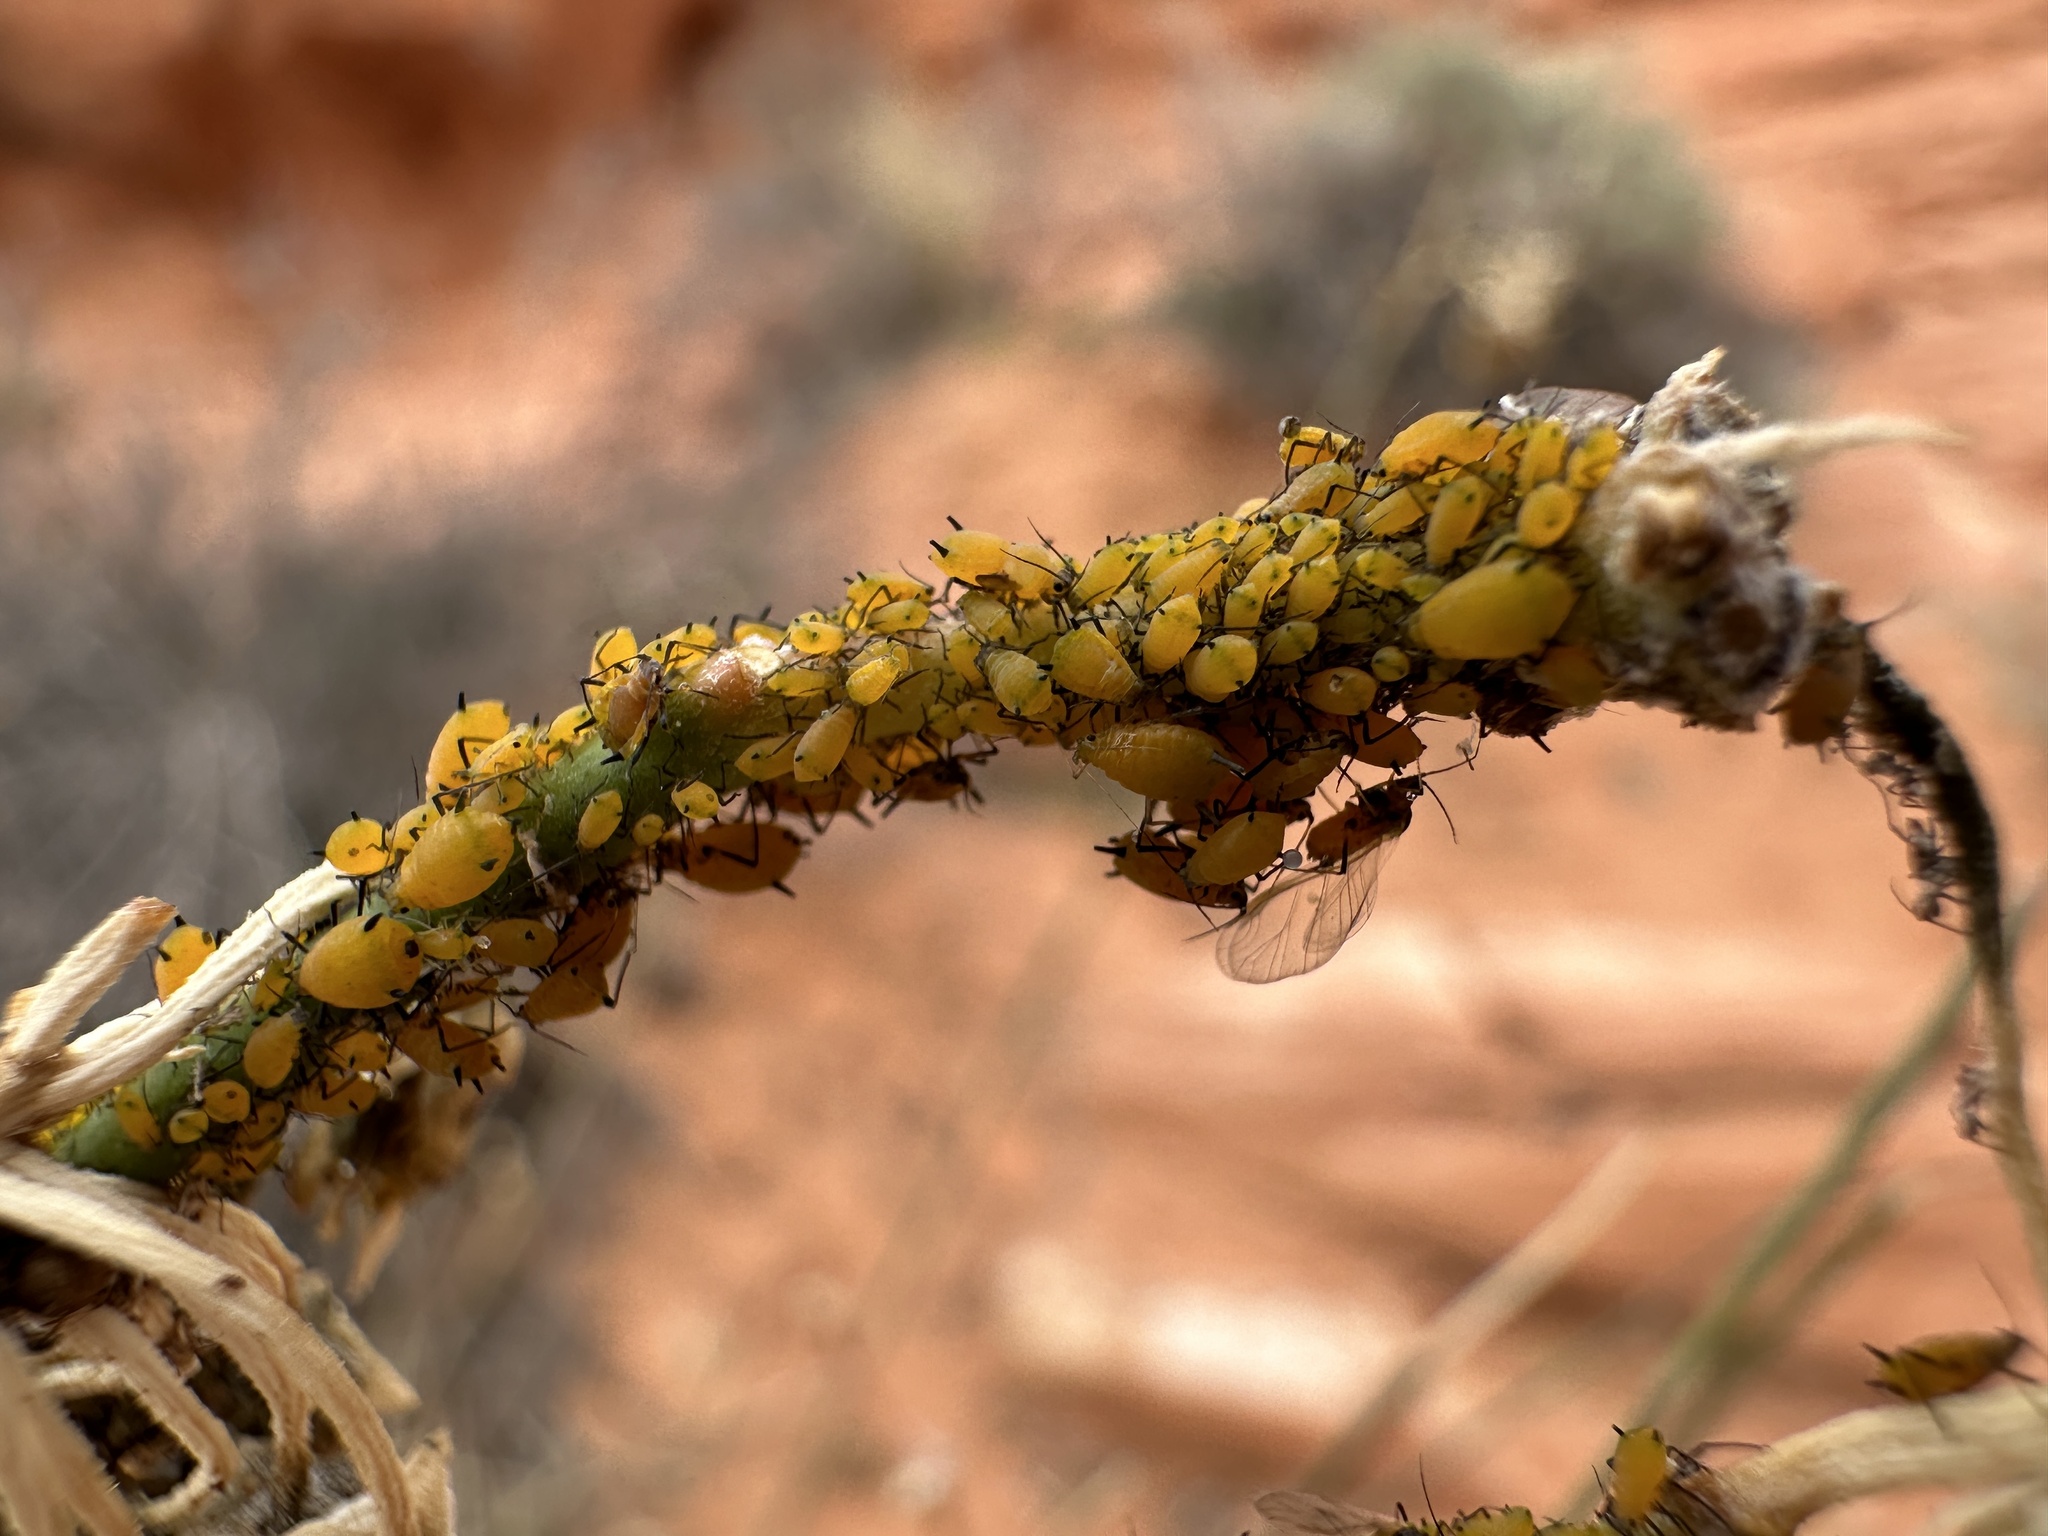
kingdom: Animalia
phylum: Arthropoda
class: Insecta
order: Hemiptera
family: Aphididae
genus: Aphis
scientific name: Aphis nerii
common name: Oleander aphid
